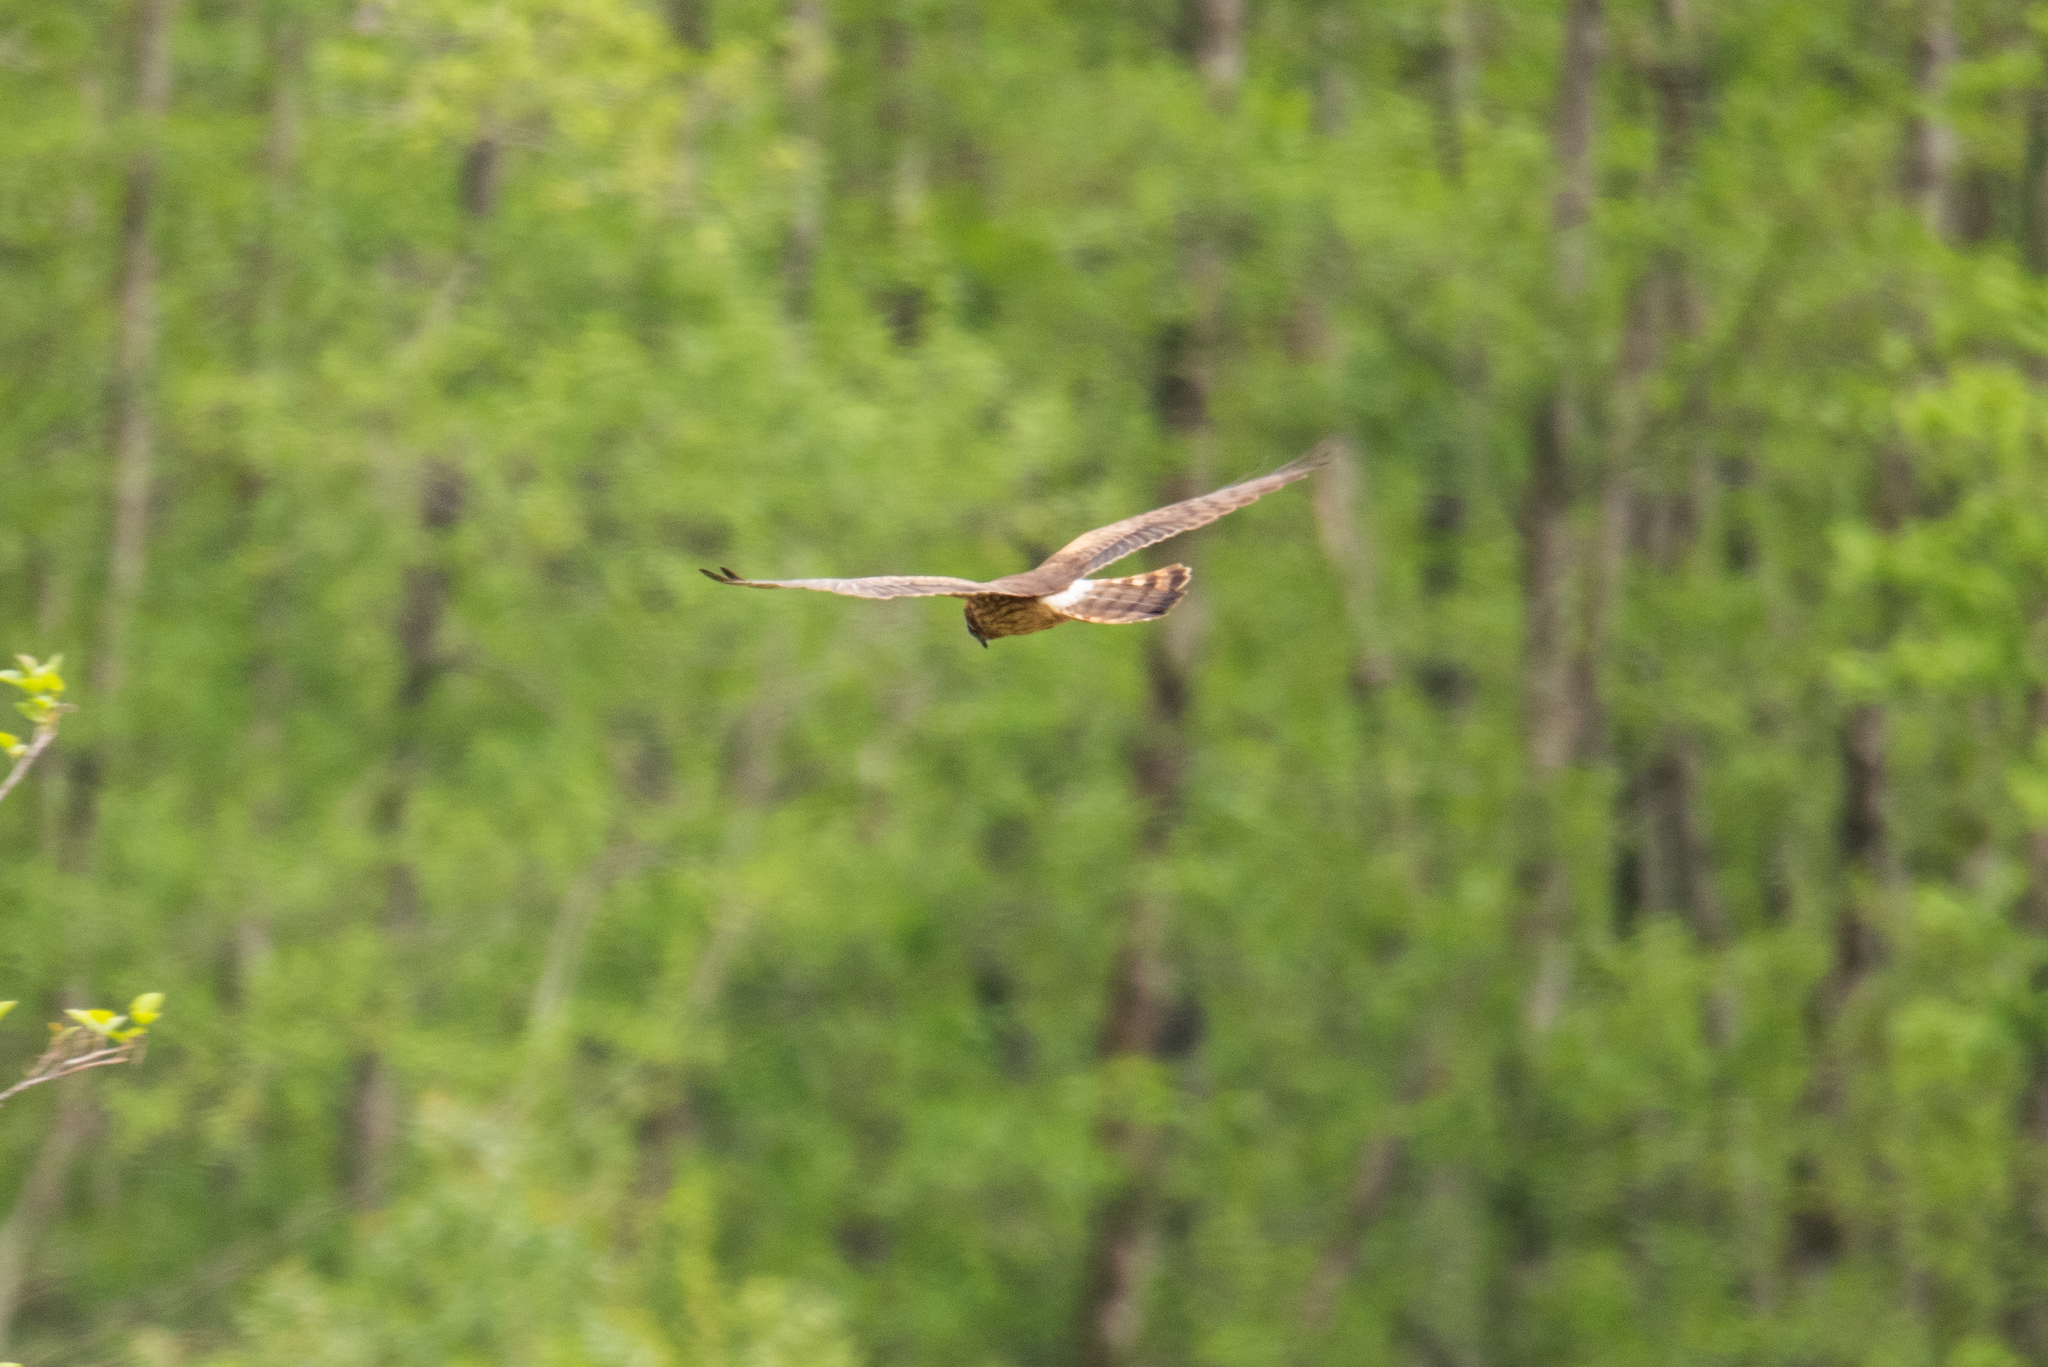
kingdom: Animalia
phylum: Chordata
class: Aves
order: Accipitriformes
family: Accipitridae
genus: Circus
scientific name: Circus pygargus
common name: Montagu's harrier
